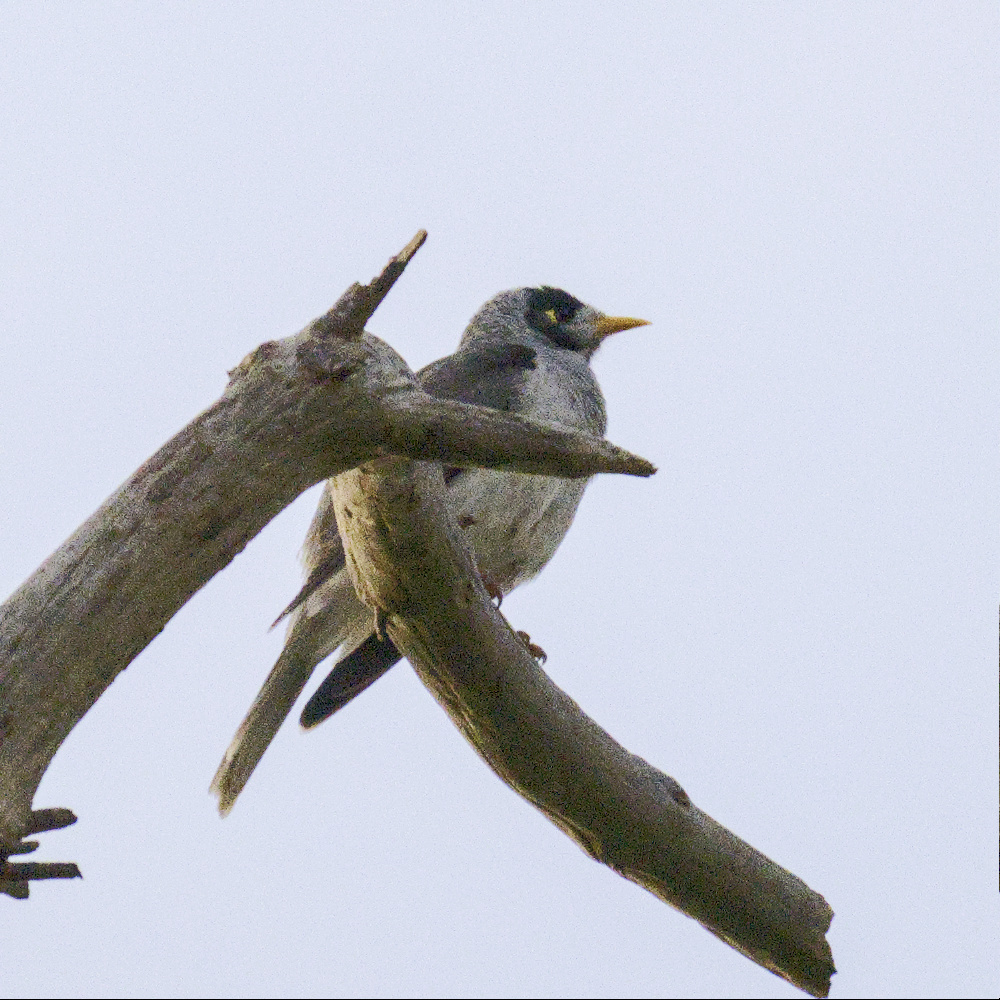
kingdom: Animalia
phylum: Chordata
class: Aves
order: Passeriformes
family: Meliphagidae
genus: Manorina
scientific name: Manorina melanocephala
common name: Noisy miner
